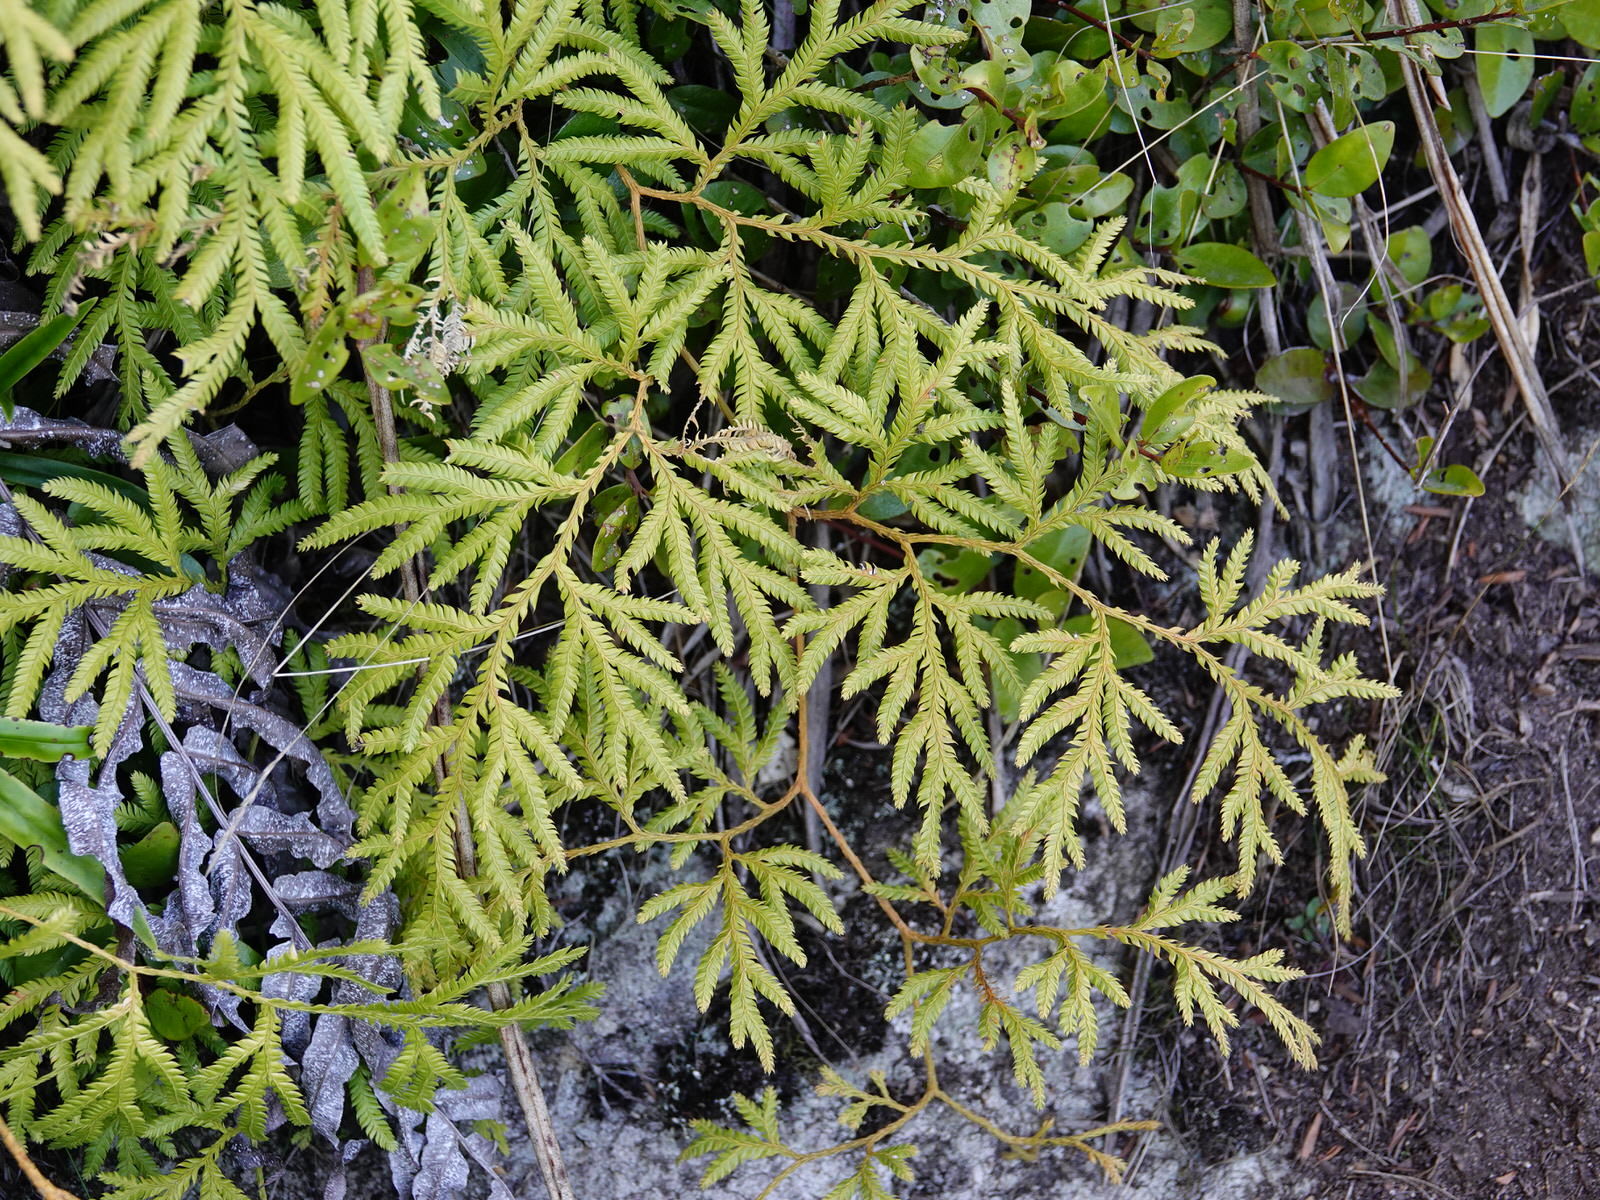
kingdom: Plantae
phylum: Tracheophyta
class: Lycopodiopsida
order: Lycopodiales
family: Lycopodiaceae
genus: Lycopodium
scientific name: Lycopodium volubile
